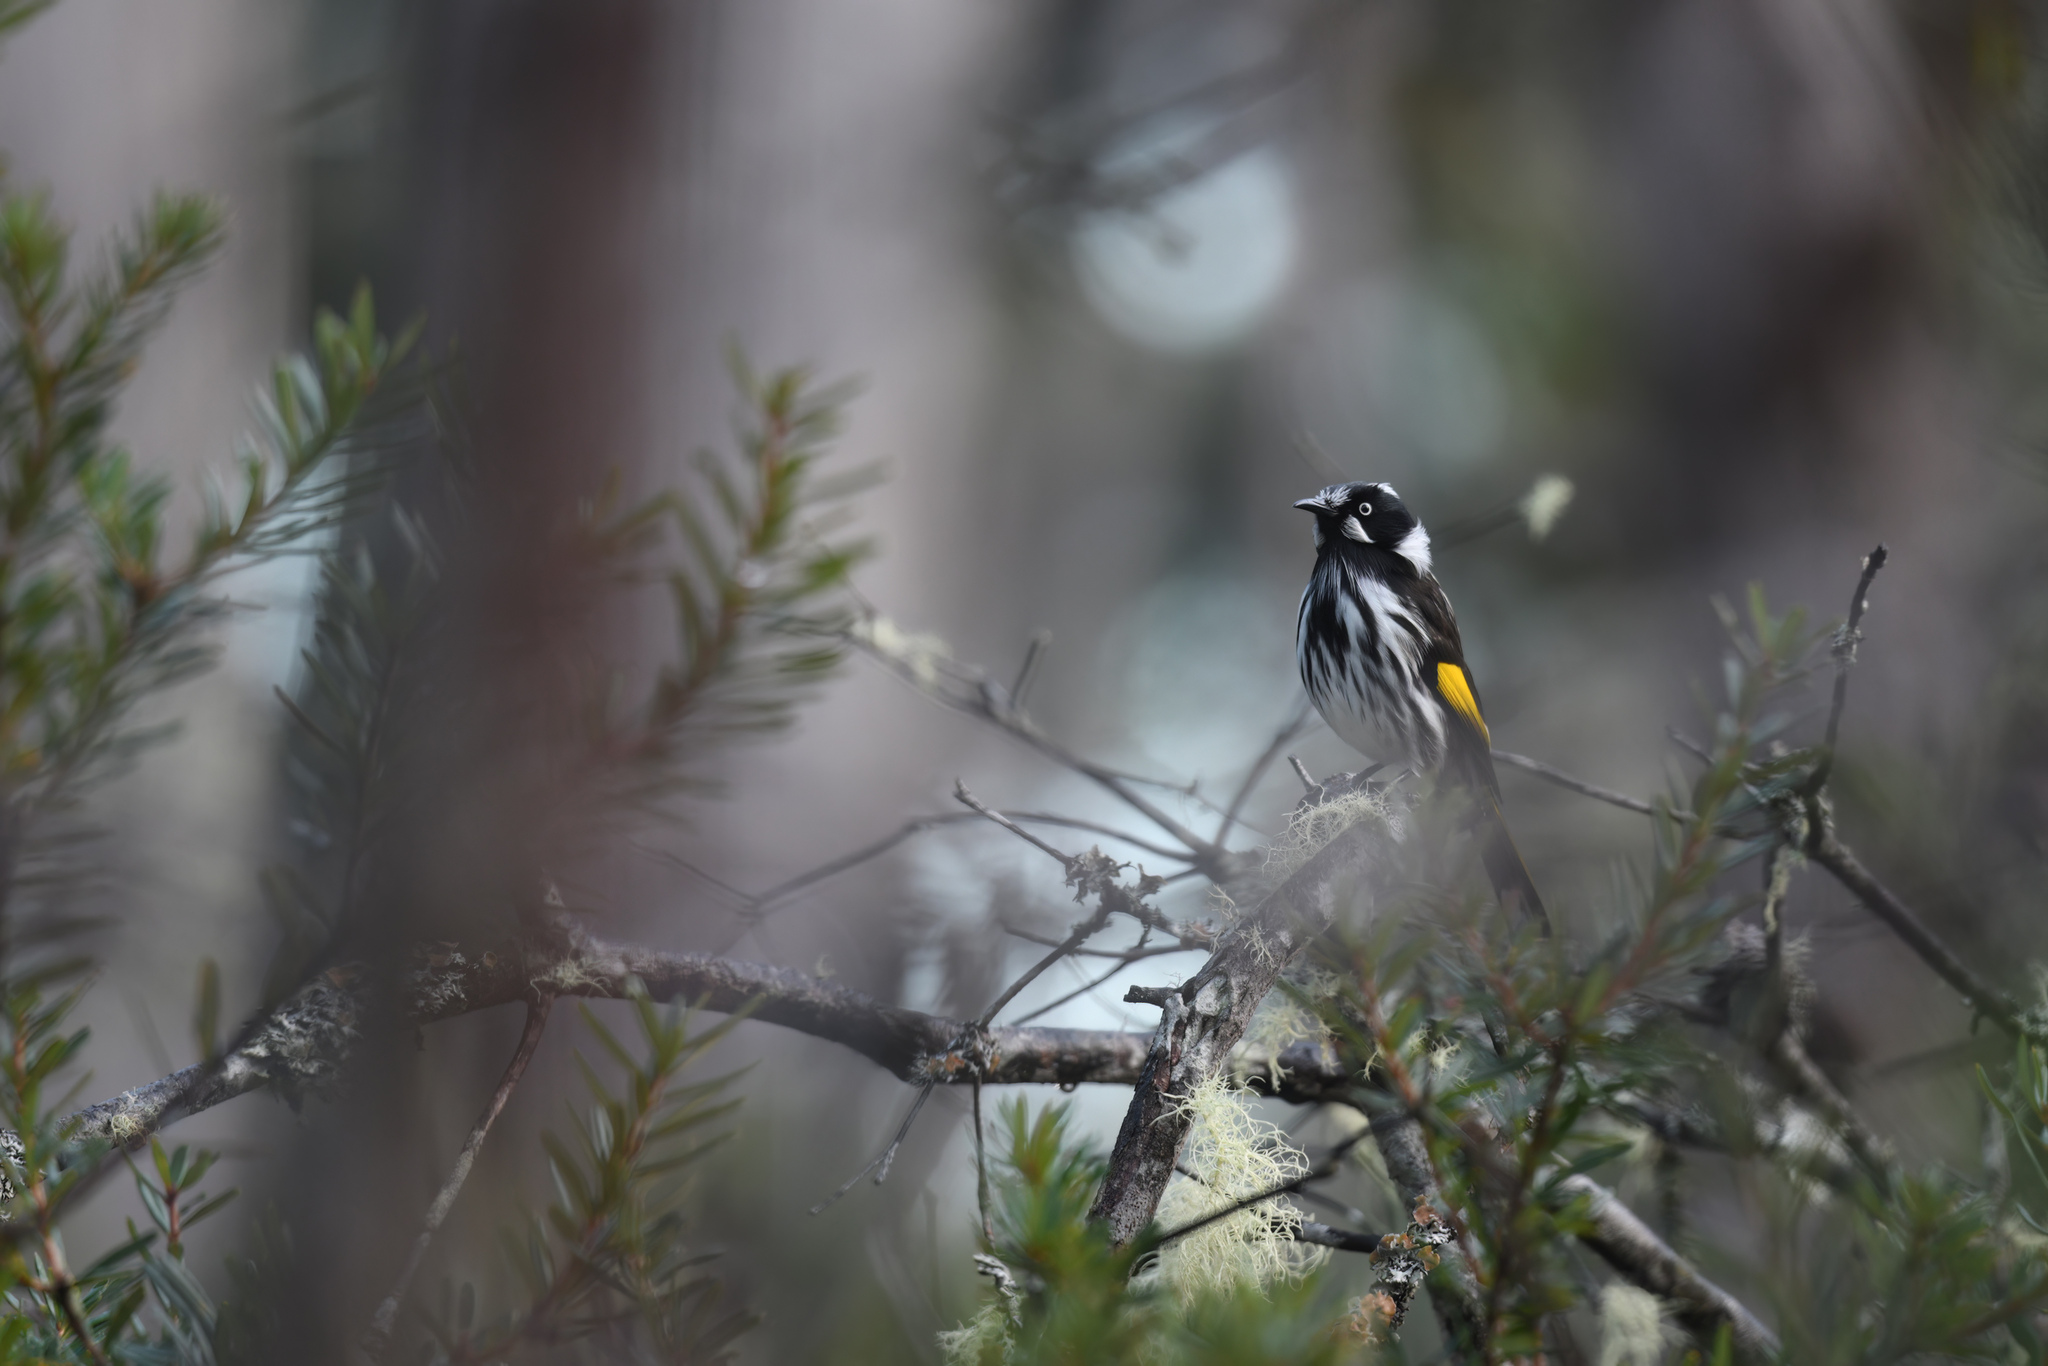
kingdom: Animalia
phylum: Chordata
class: Aves
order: Passeriformes
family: Meliphagidae
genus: Phylidonyris
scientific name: Phylidonyris novaehollandiae
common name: New holland honeyeater
